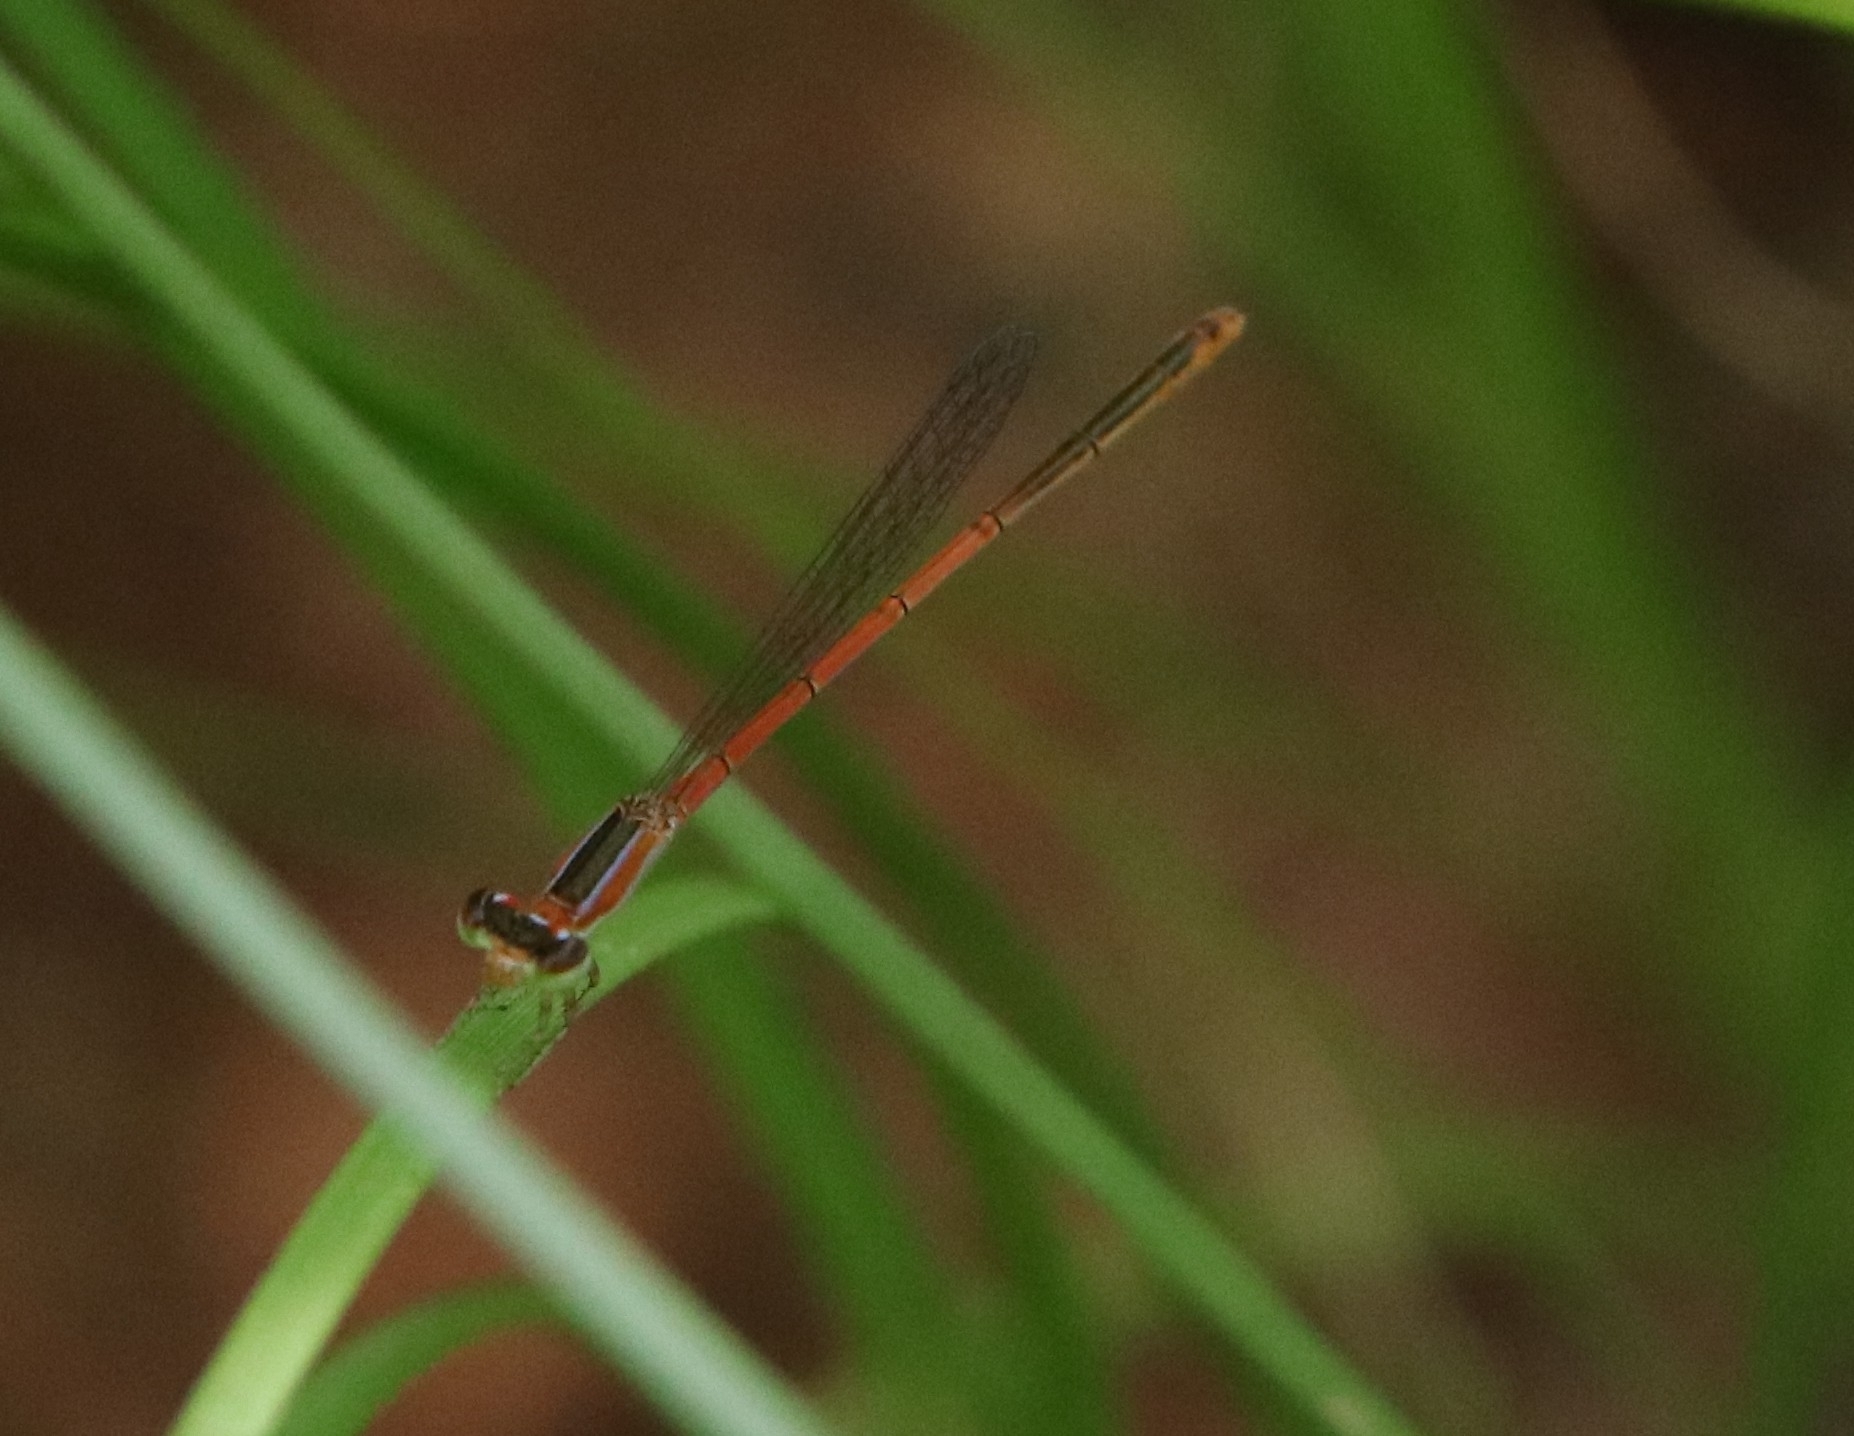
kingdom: Animalia
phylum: Arthropoda
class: Insecta
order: Odonata
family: Coenagrionidae
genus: Agriocnemis
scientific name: Agriocnemis pygmaea
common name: Pygmy wisp
